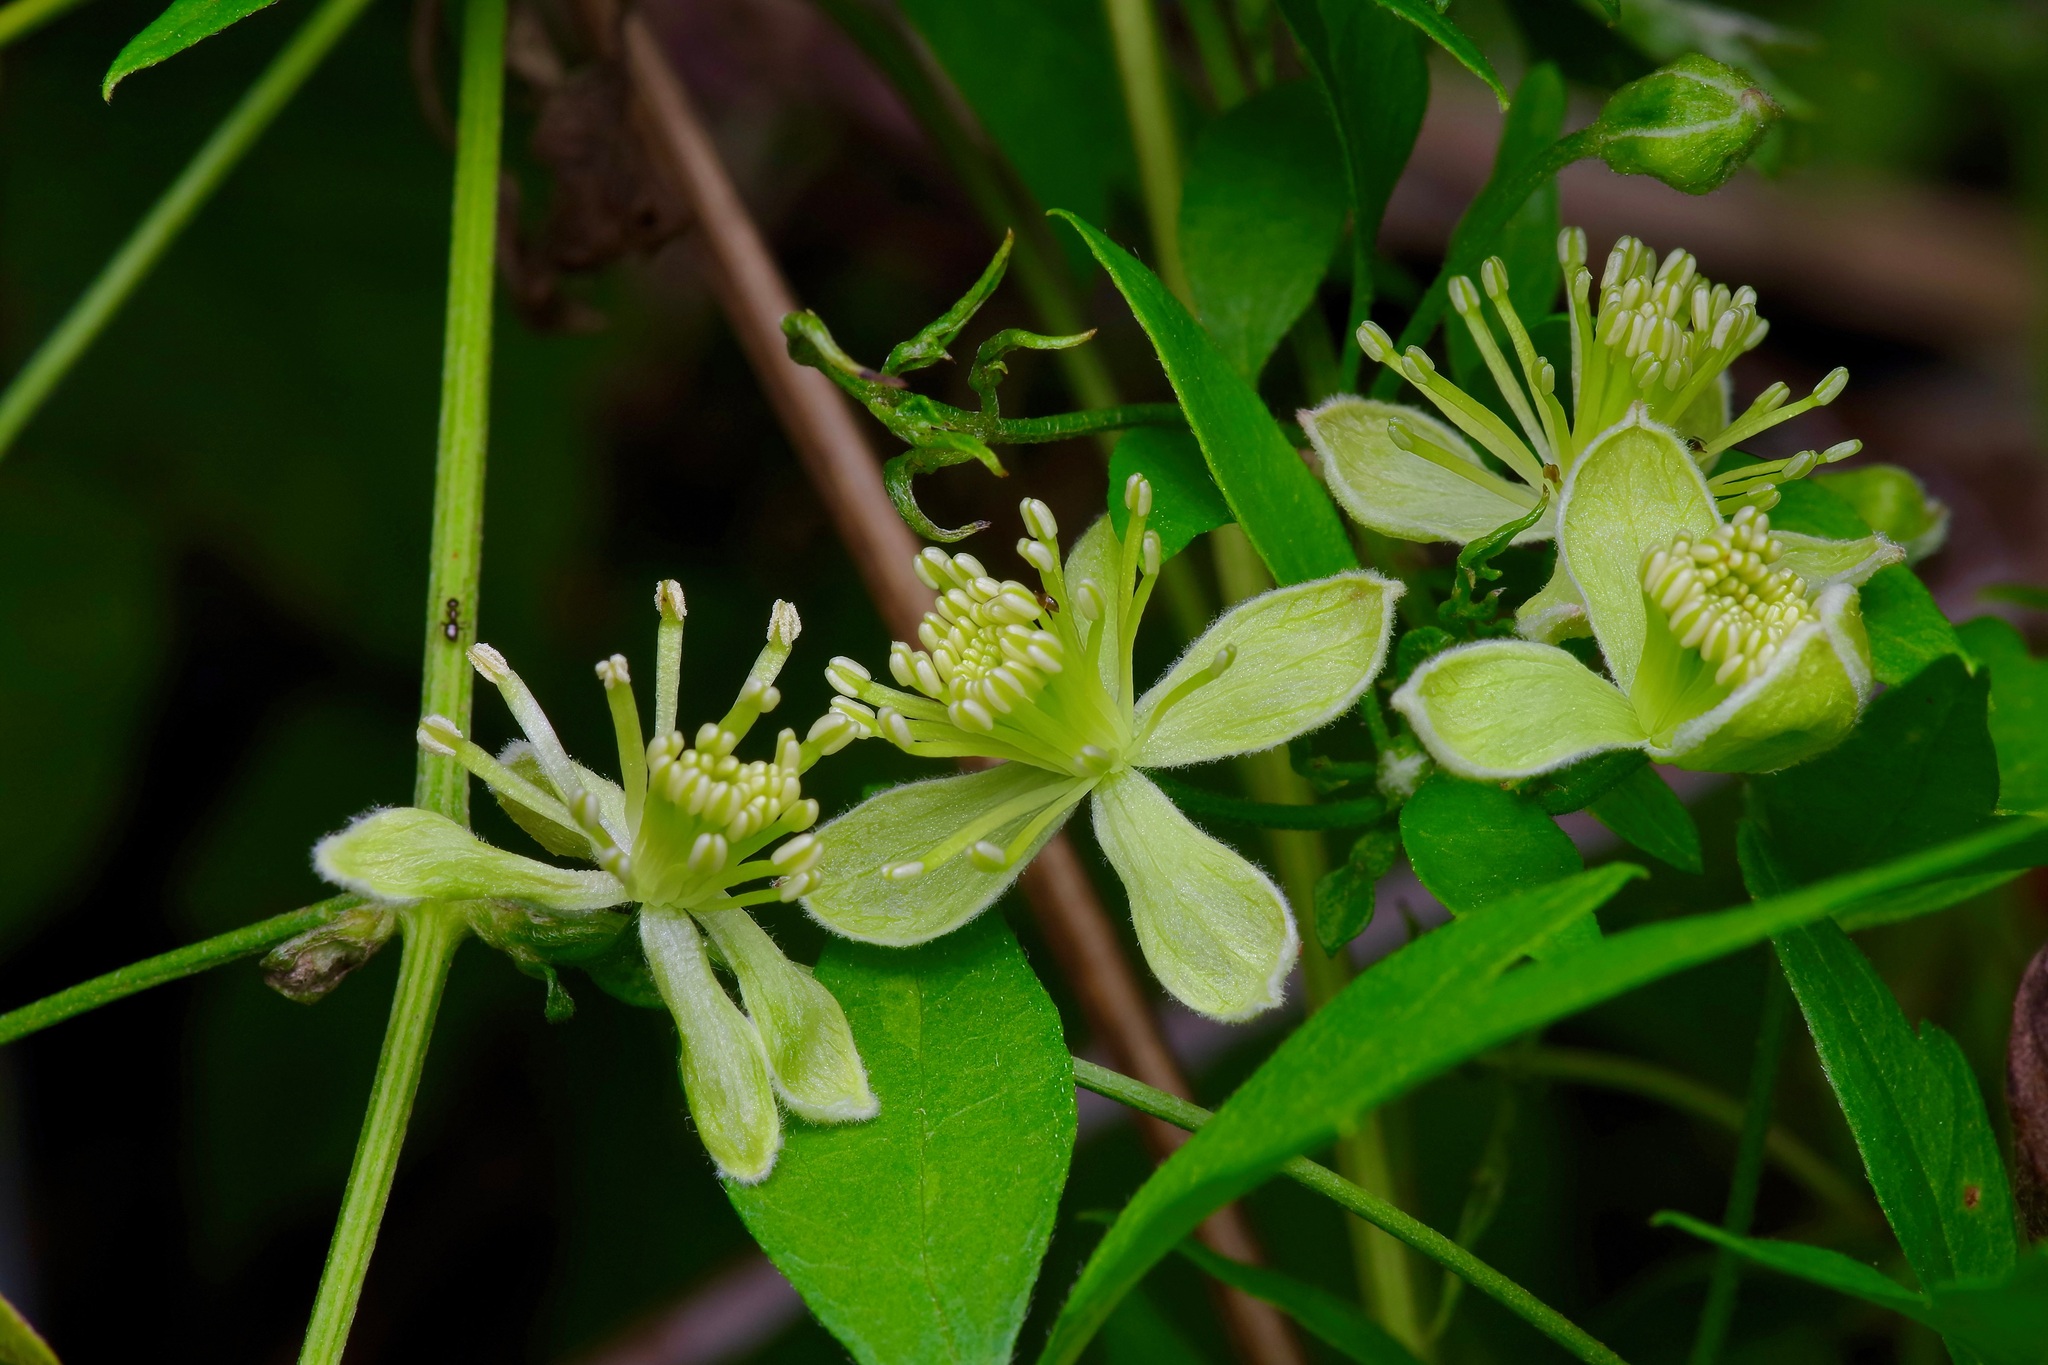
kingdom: Plantae
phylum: Tracheophyta
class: Magnoliopsida
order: Ranunculales
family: Ranunculaceae
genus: Clematis
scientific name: Clematis drummondii
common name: Texas virgin's bower
